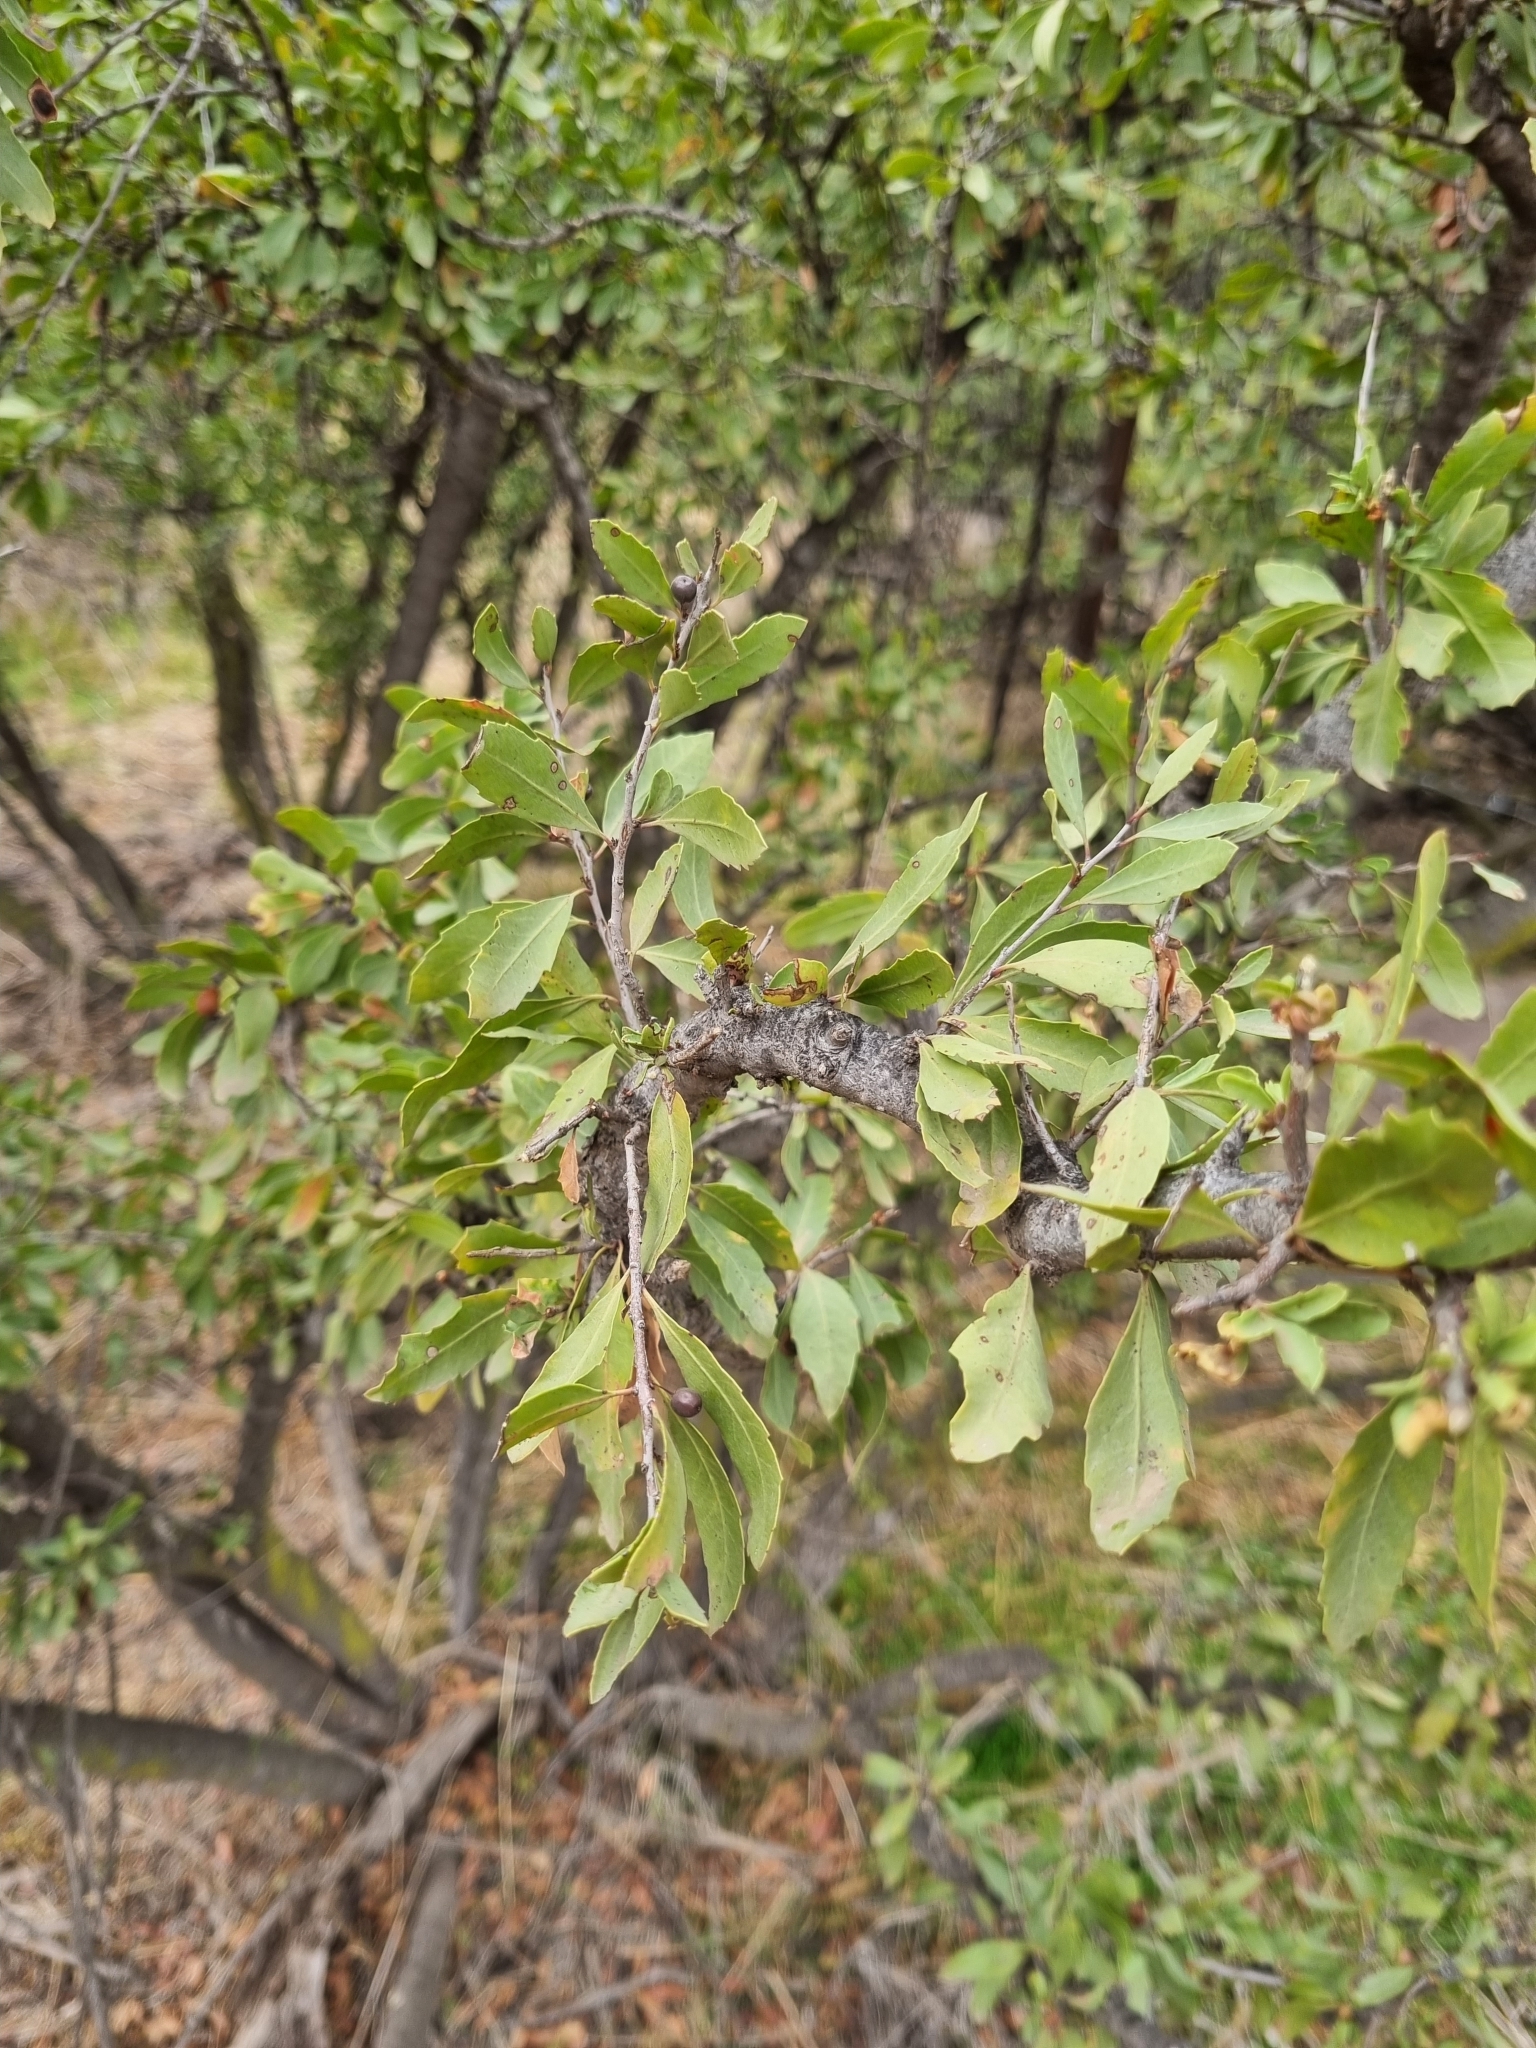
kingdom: Plantae
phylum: Tracheophyta
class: Magnoliopsida
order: Sapindales
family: Anacardiaceae
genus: Schinus
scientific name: Schinus polygama
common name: Hardee peppertree
